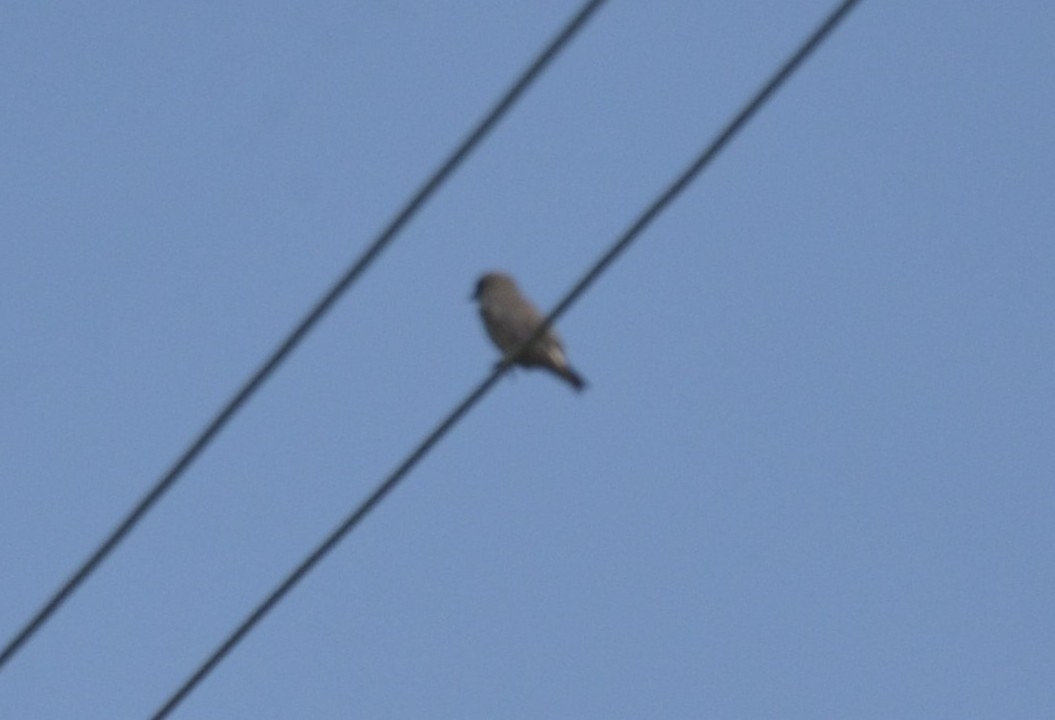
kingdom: Animalia
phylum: Chordata
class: Aves
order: Passeriformes
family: Artamidae
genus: Artamus
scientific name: Artamus fuscus
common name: Ashy woodswallow
